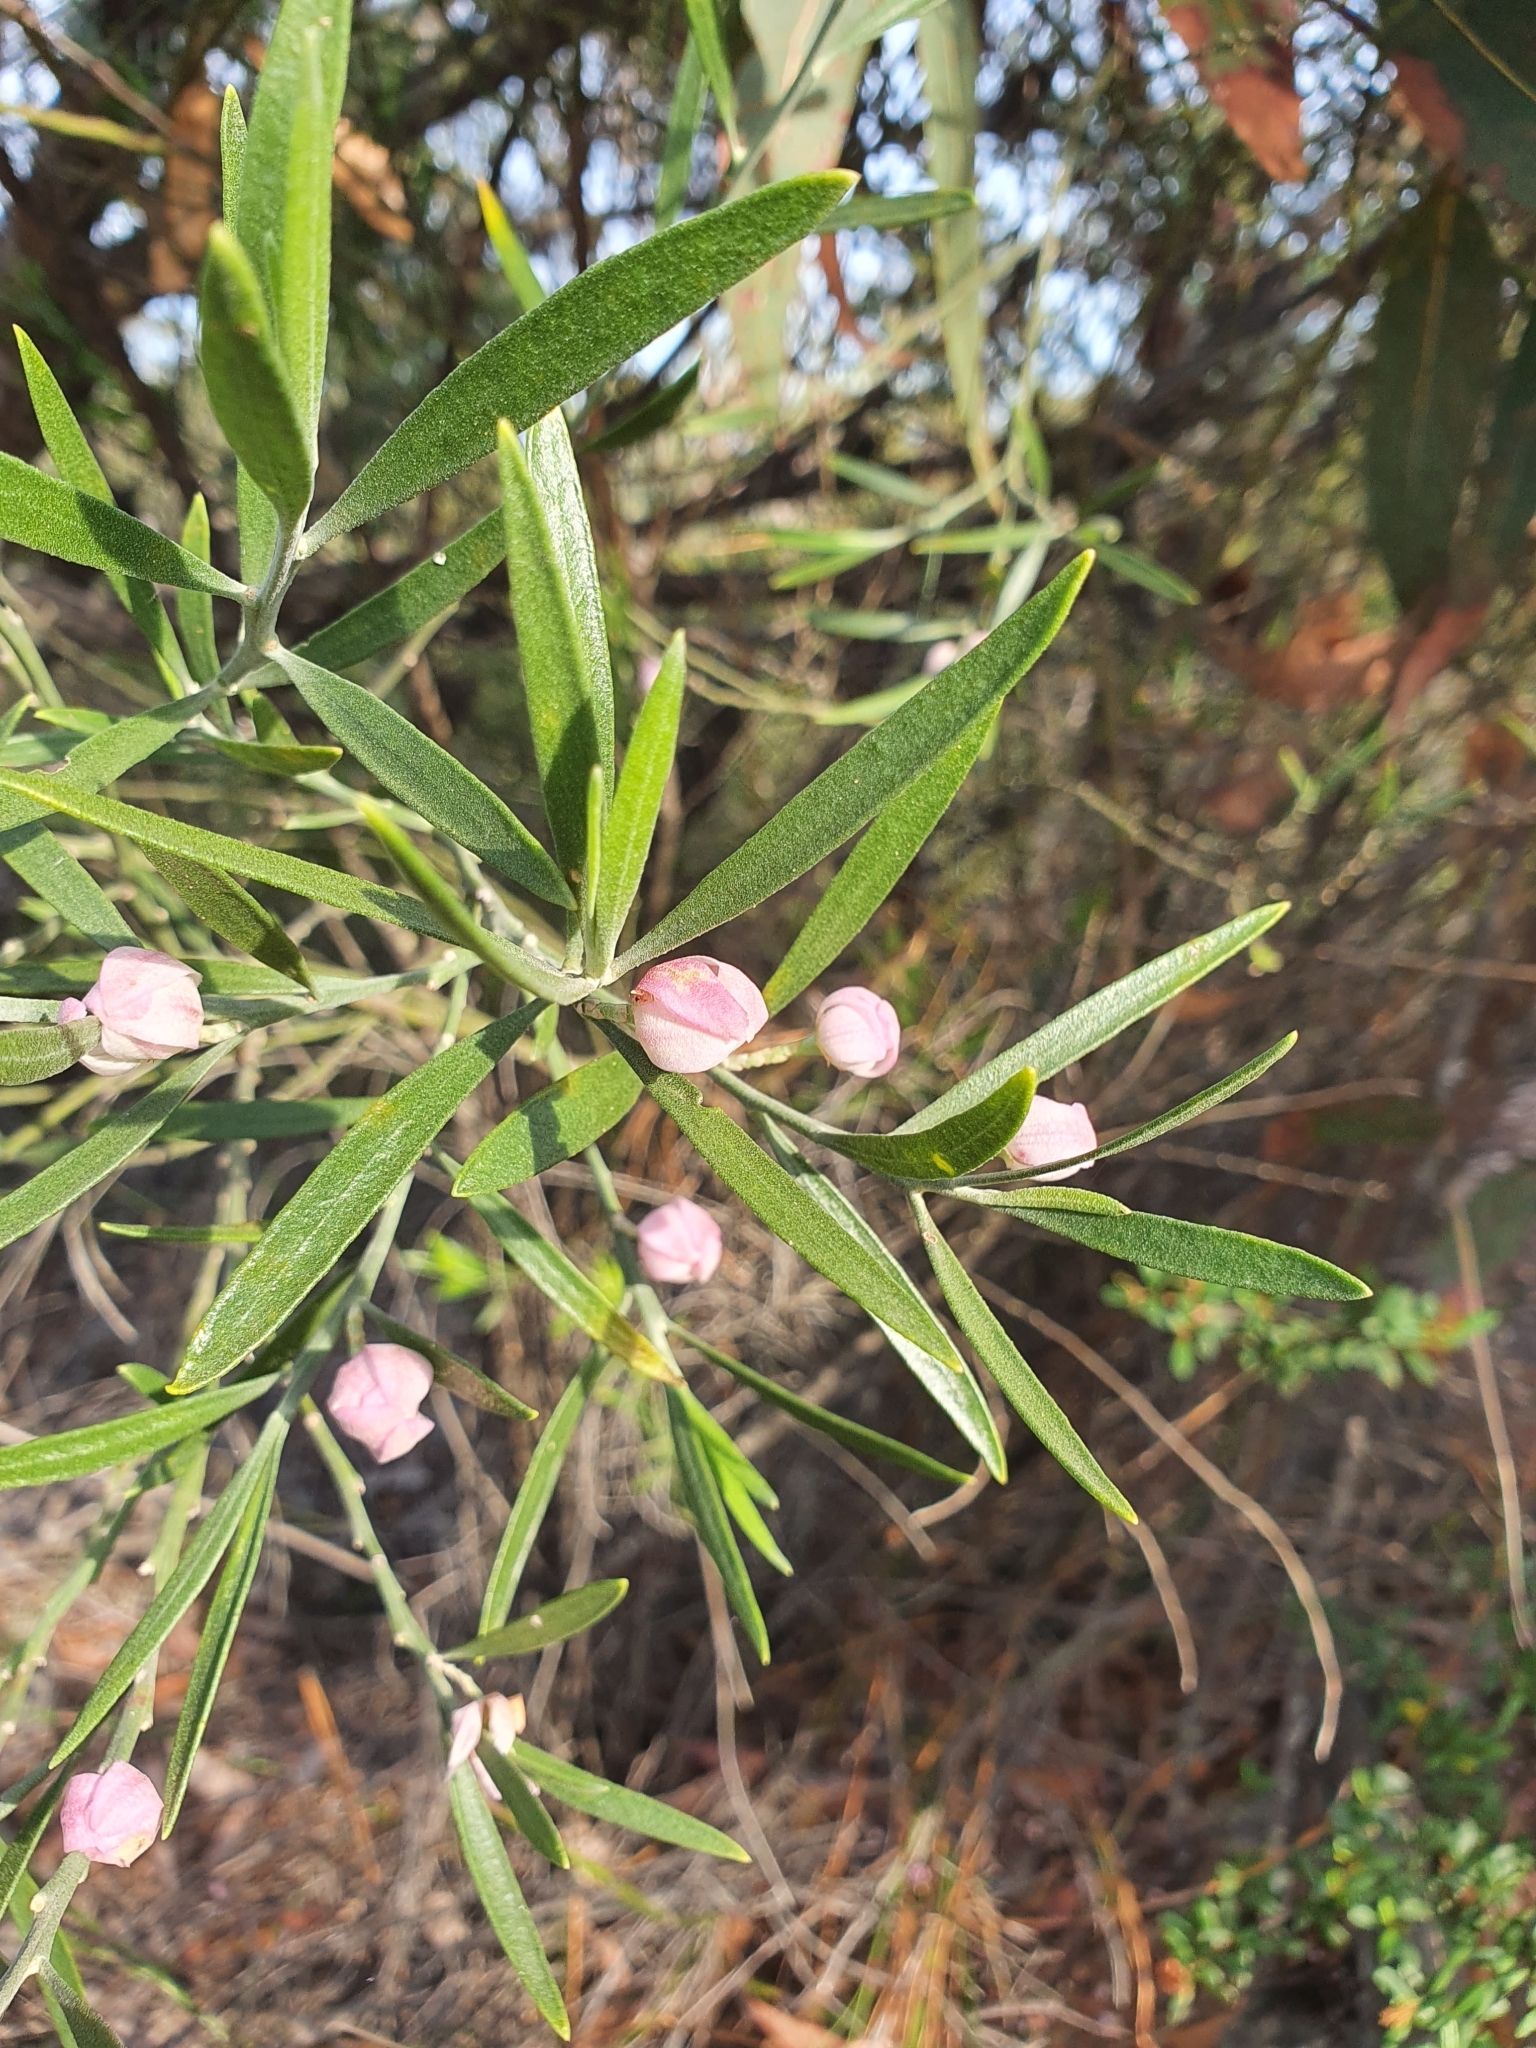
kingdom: Plantae
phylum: Tracheophyta
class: Magnoliopsida
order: Sapindales
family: Rutaceae
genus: Eriostemon
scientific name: Eriostemon australasius
